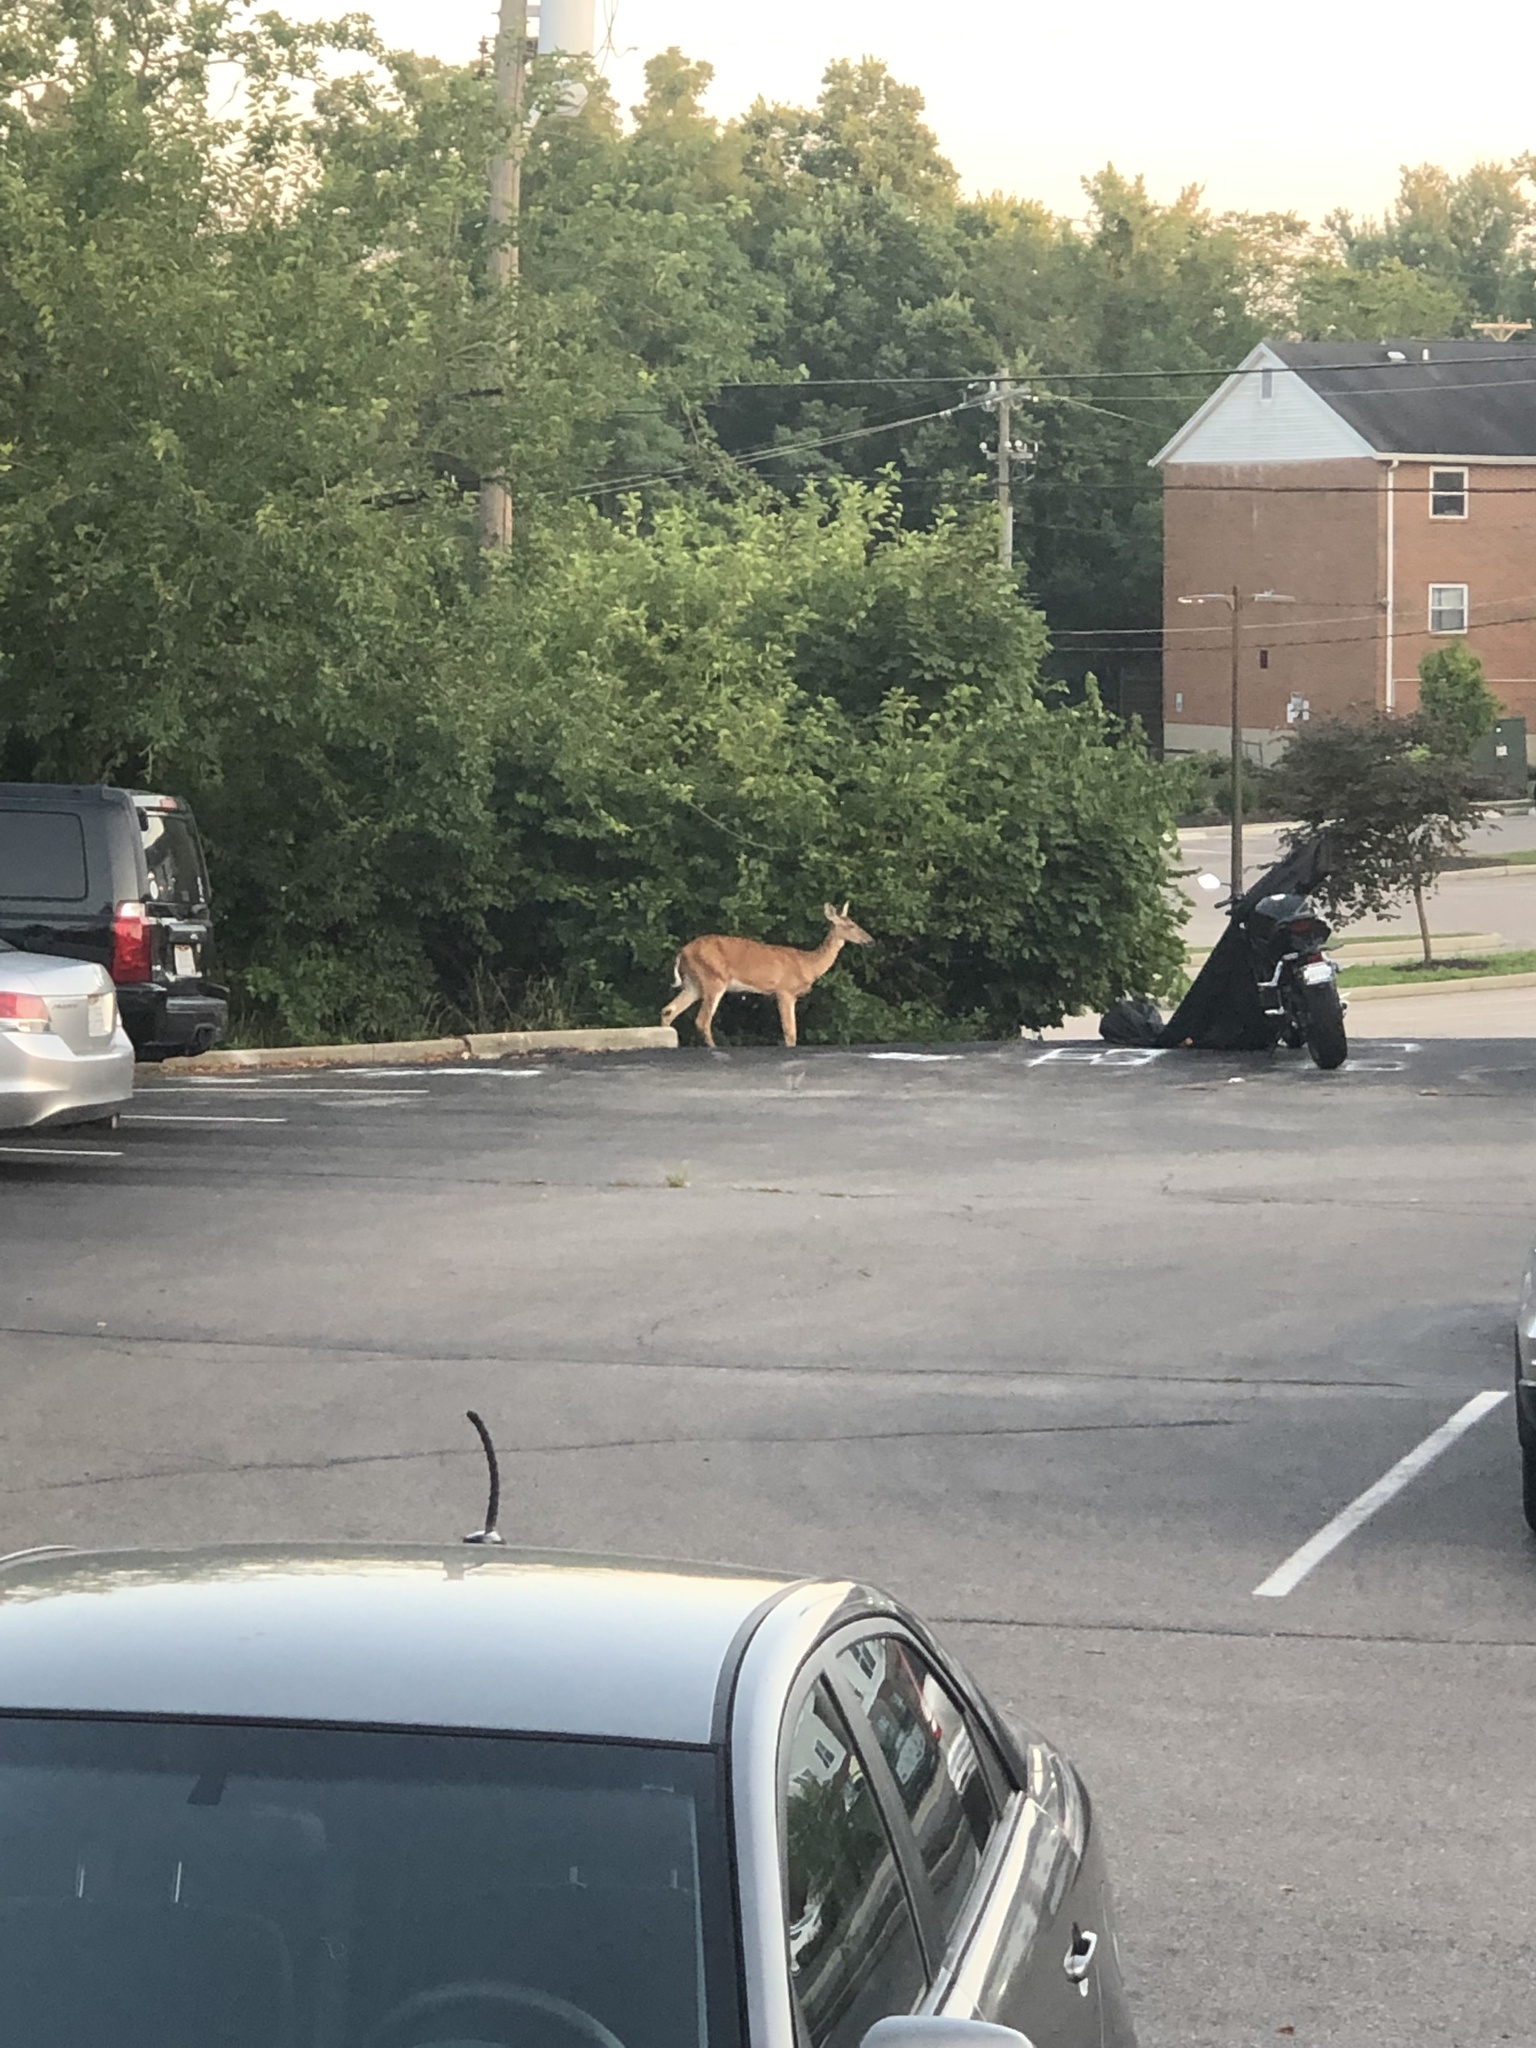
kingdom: Animalia
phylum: Chordata
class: Mammalia
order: Artiodactyla
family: Cervidae
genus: Odocoileus
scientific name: Odocoileus virginianus
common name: White-tailed deer
